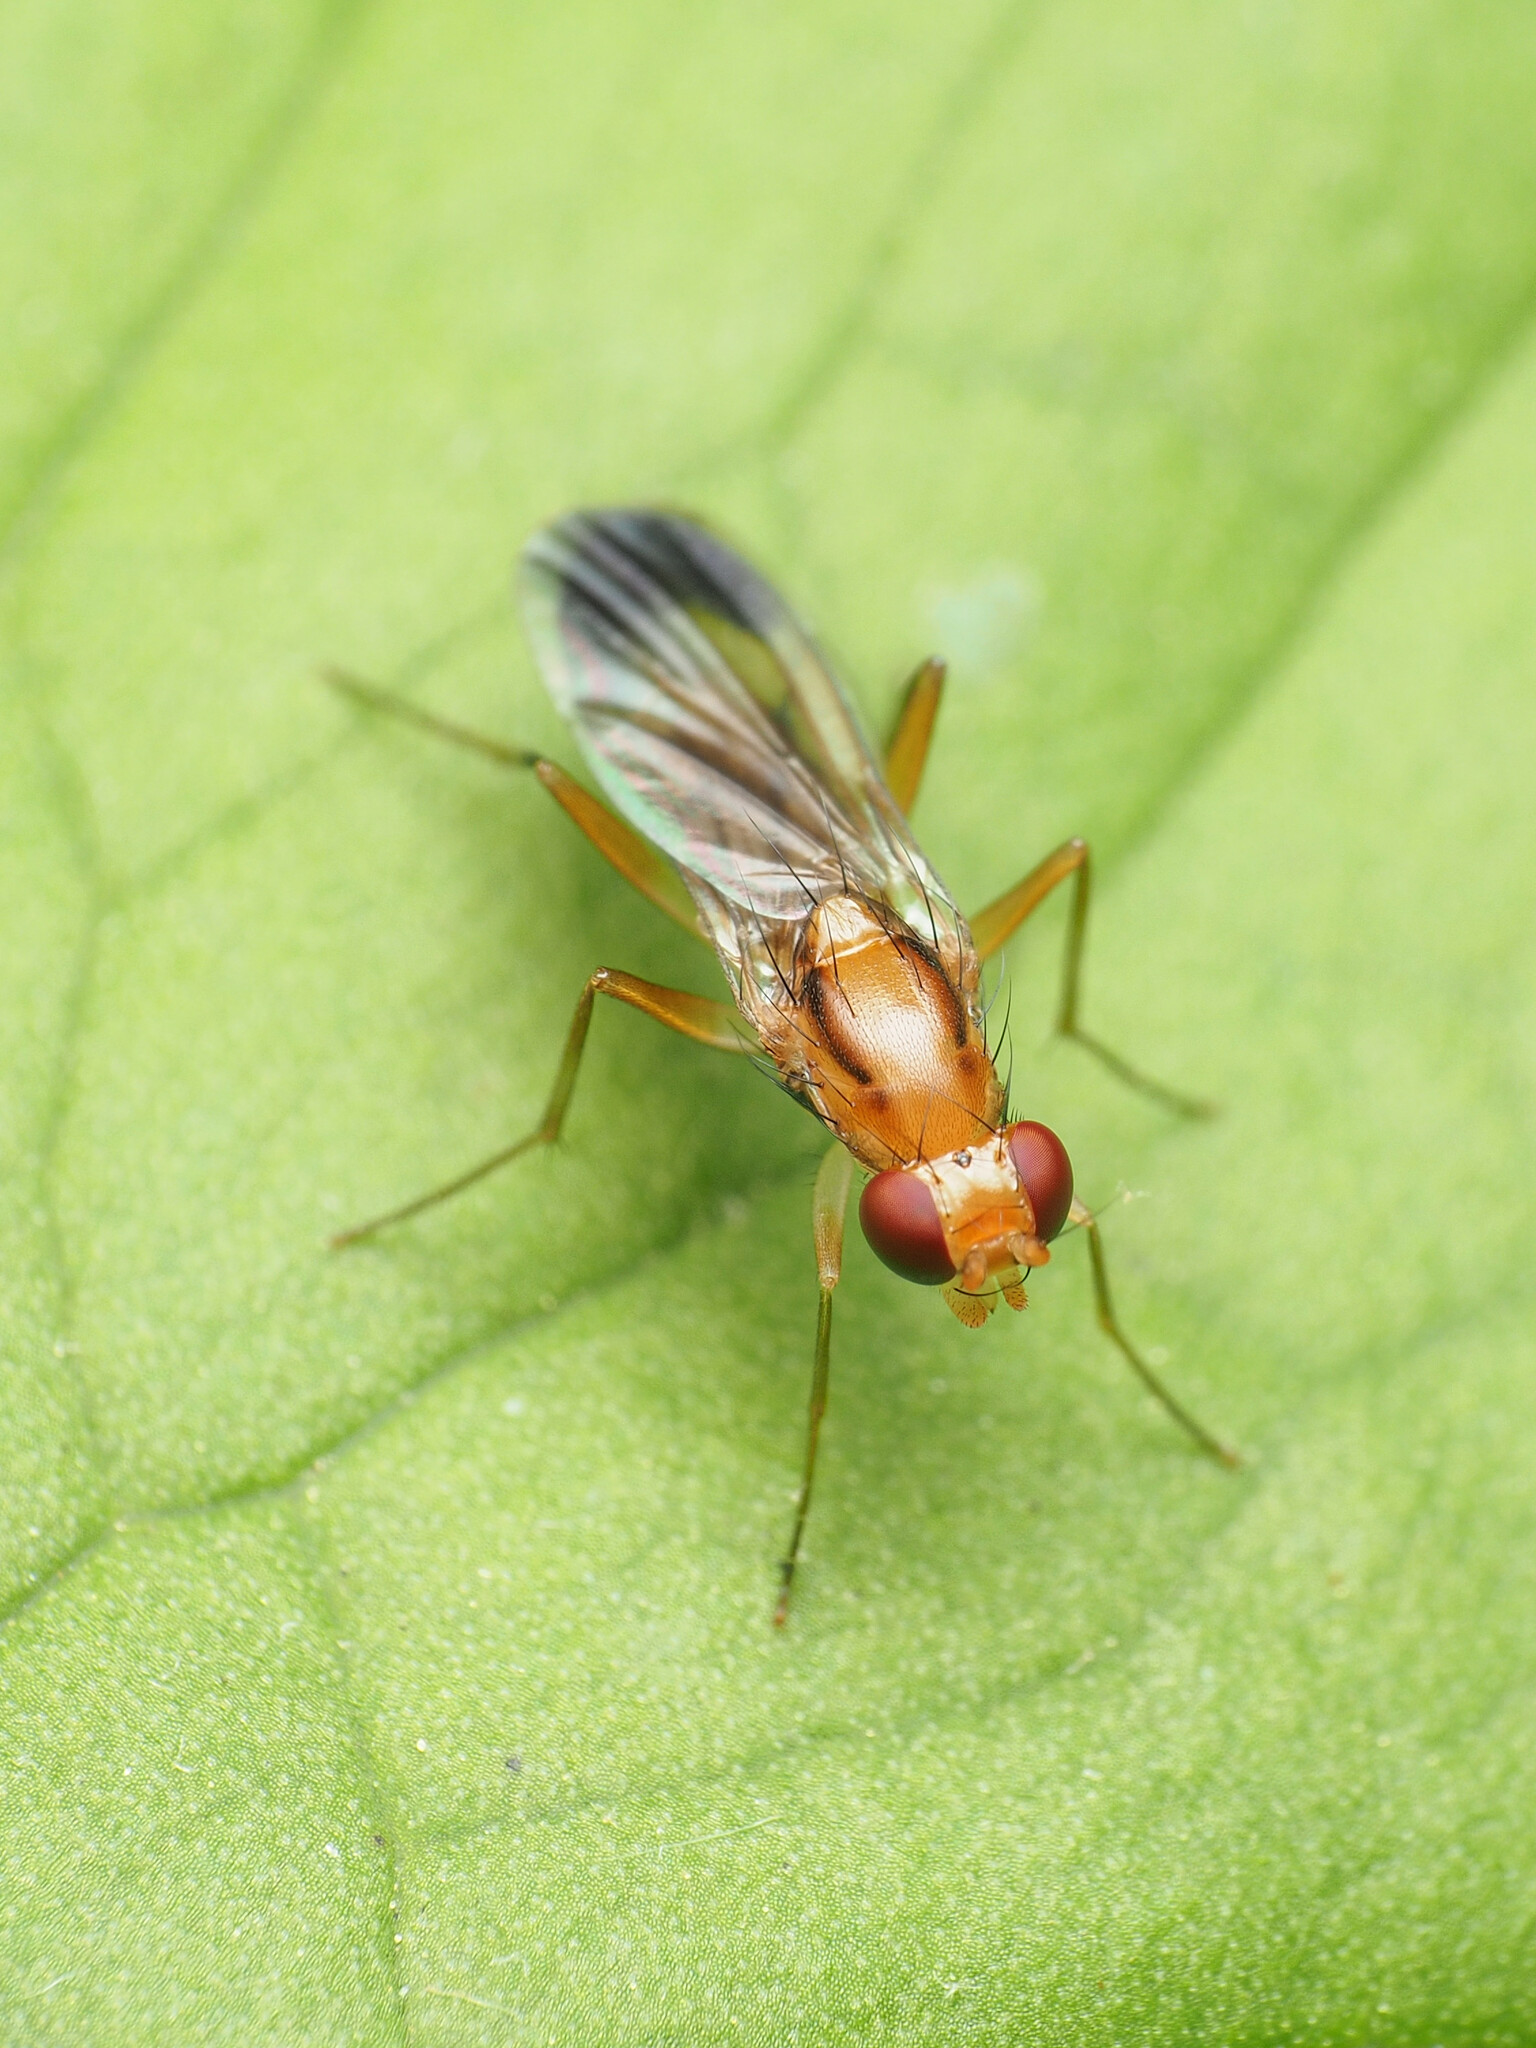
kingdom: Animalia
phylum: Arthropoda
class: Insecta
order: Diptera
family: Clusiidae
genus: Clusia
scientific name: Clusia lateralis
